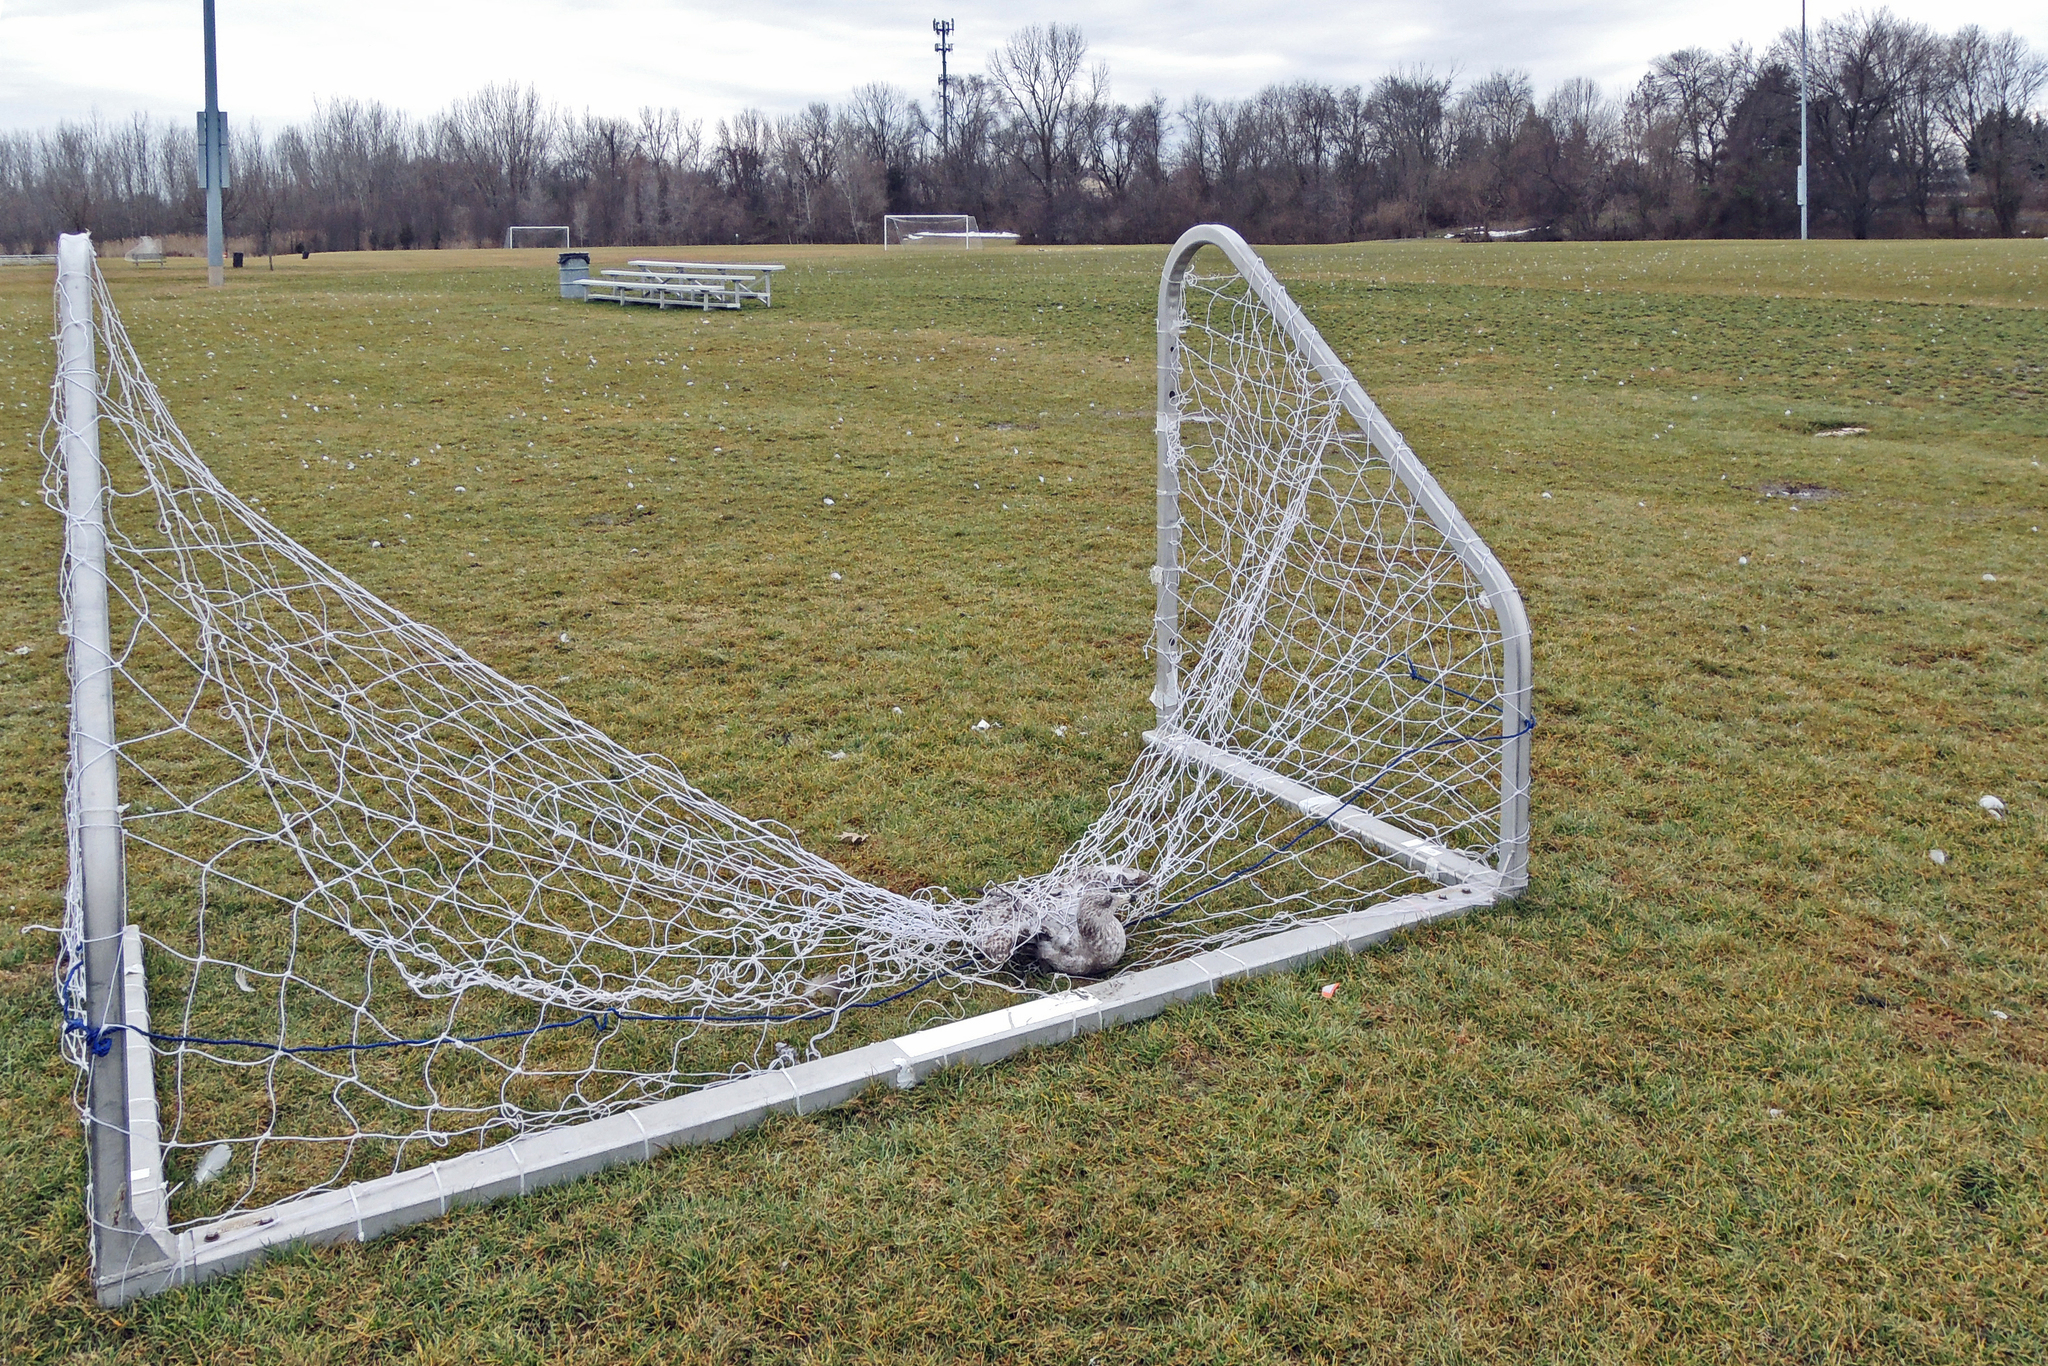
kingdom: Animalia
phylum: Chordata
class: Aves
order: Charadriiformes
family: Laridae
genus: Larus
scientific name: Larus argentatus
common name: Herring gull
